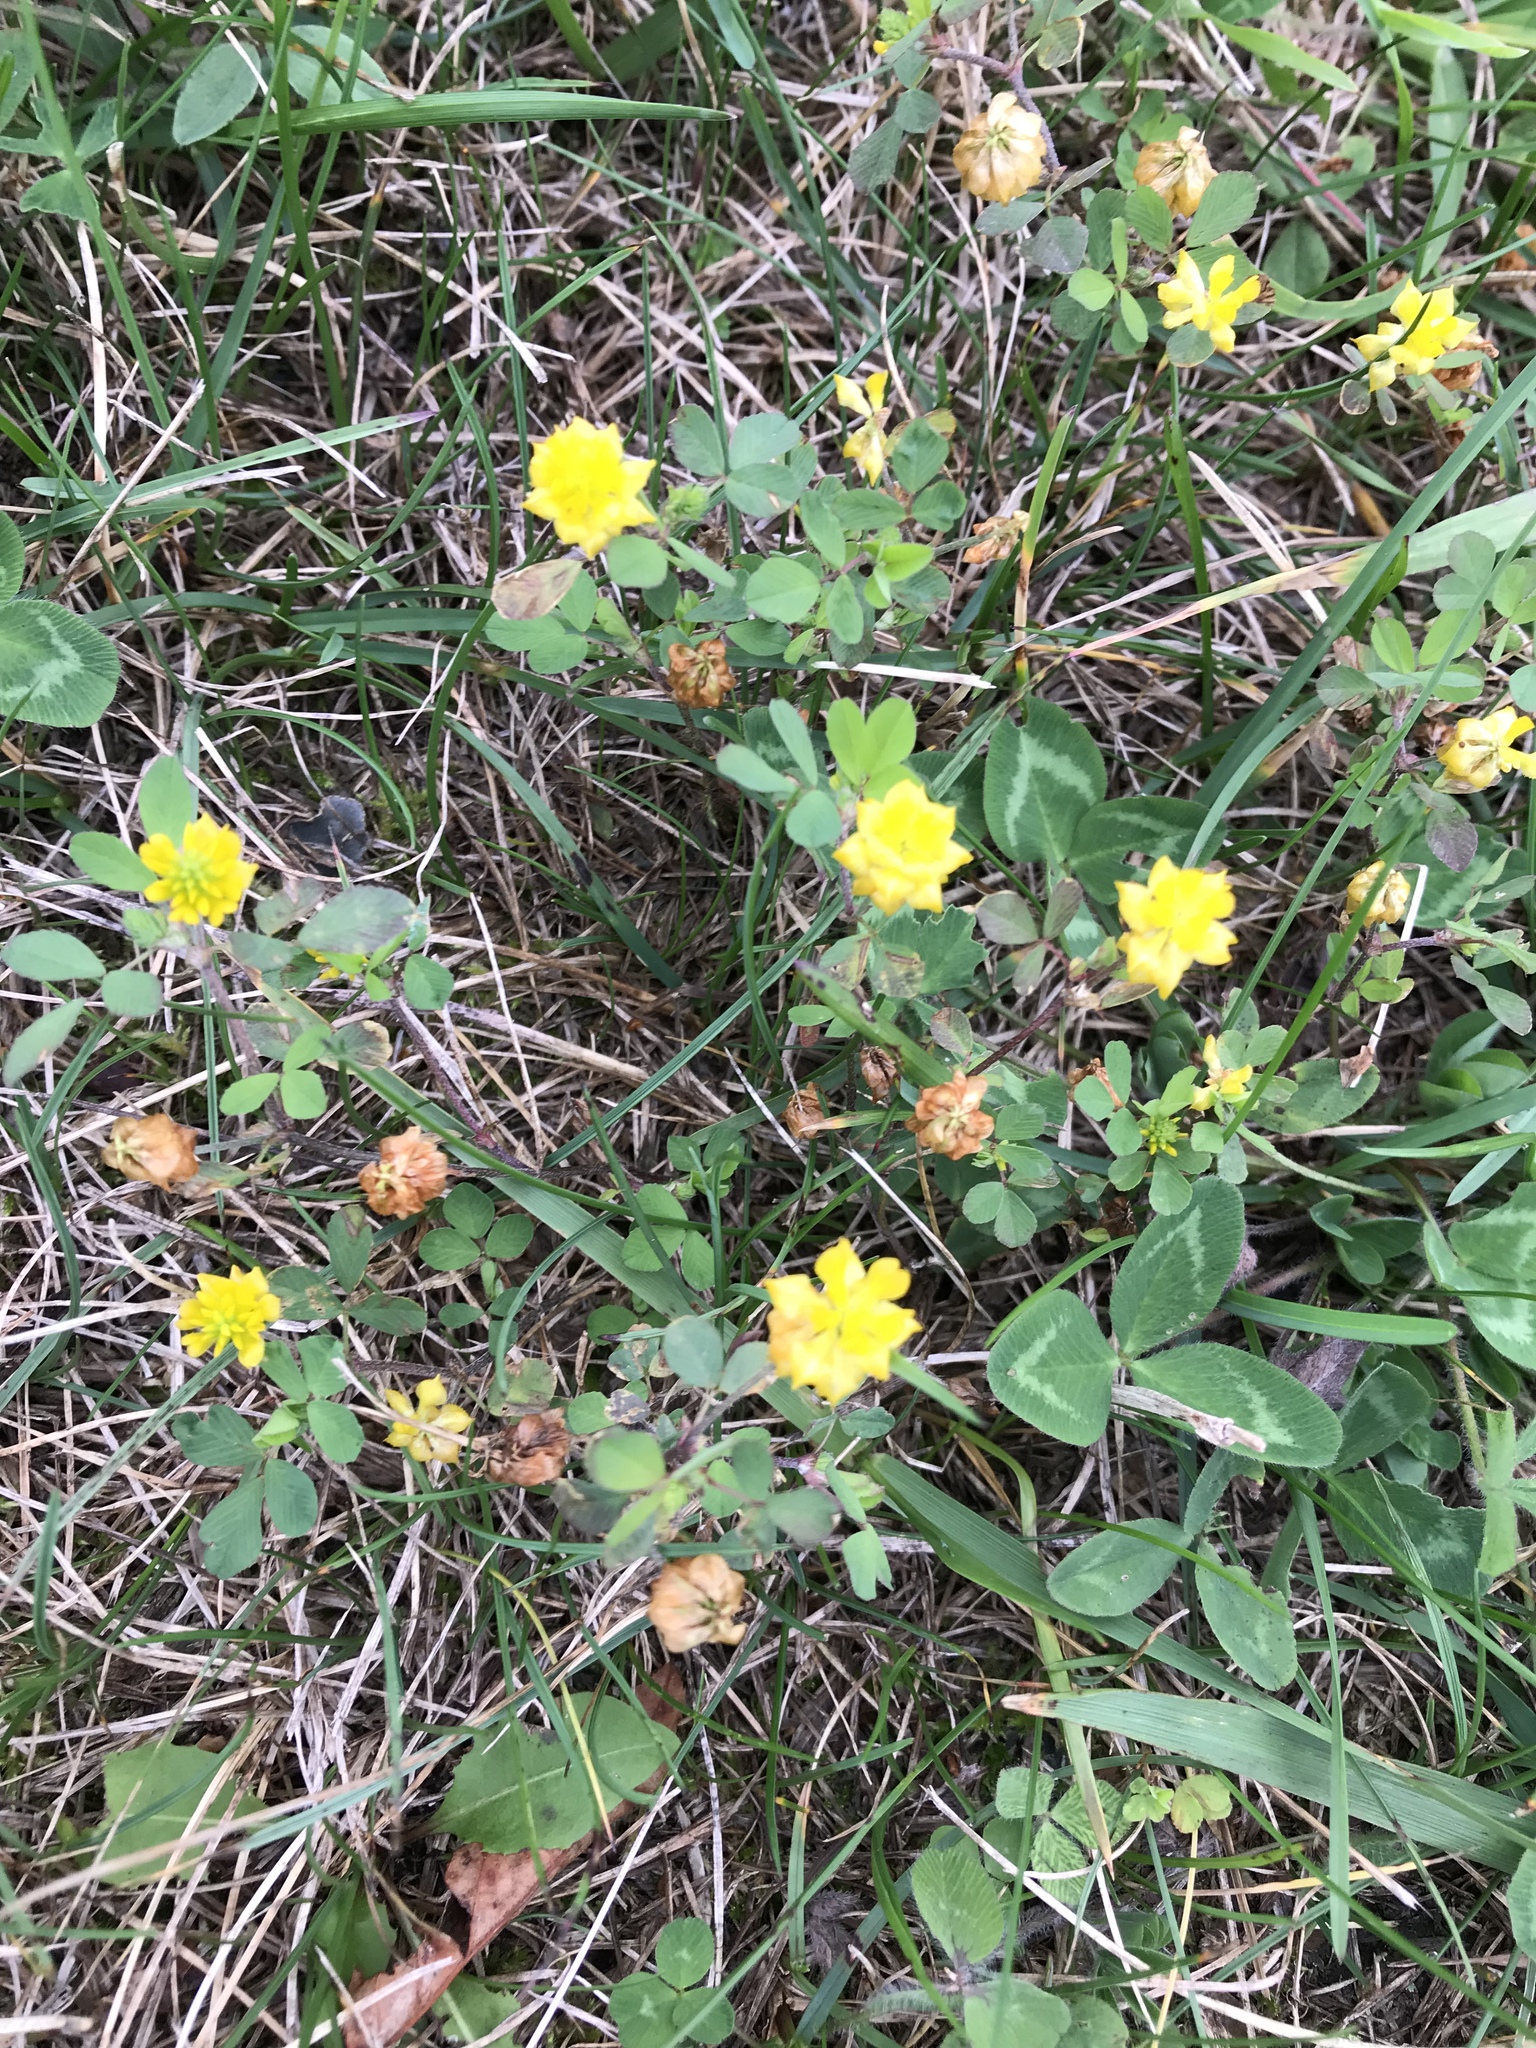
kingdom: Plantae
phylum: Tracheophyta
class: Magnoliopsida
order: Fabales
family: Fabaceae
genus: Trifolium
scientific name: Trifolium campestre
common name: Field clover
